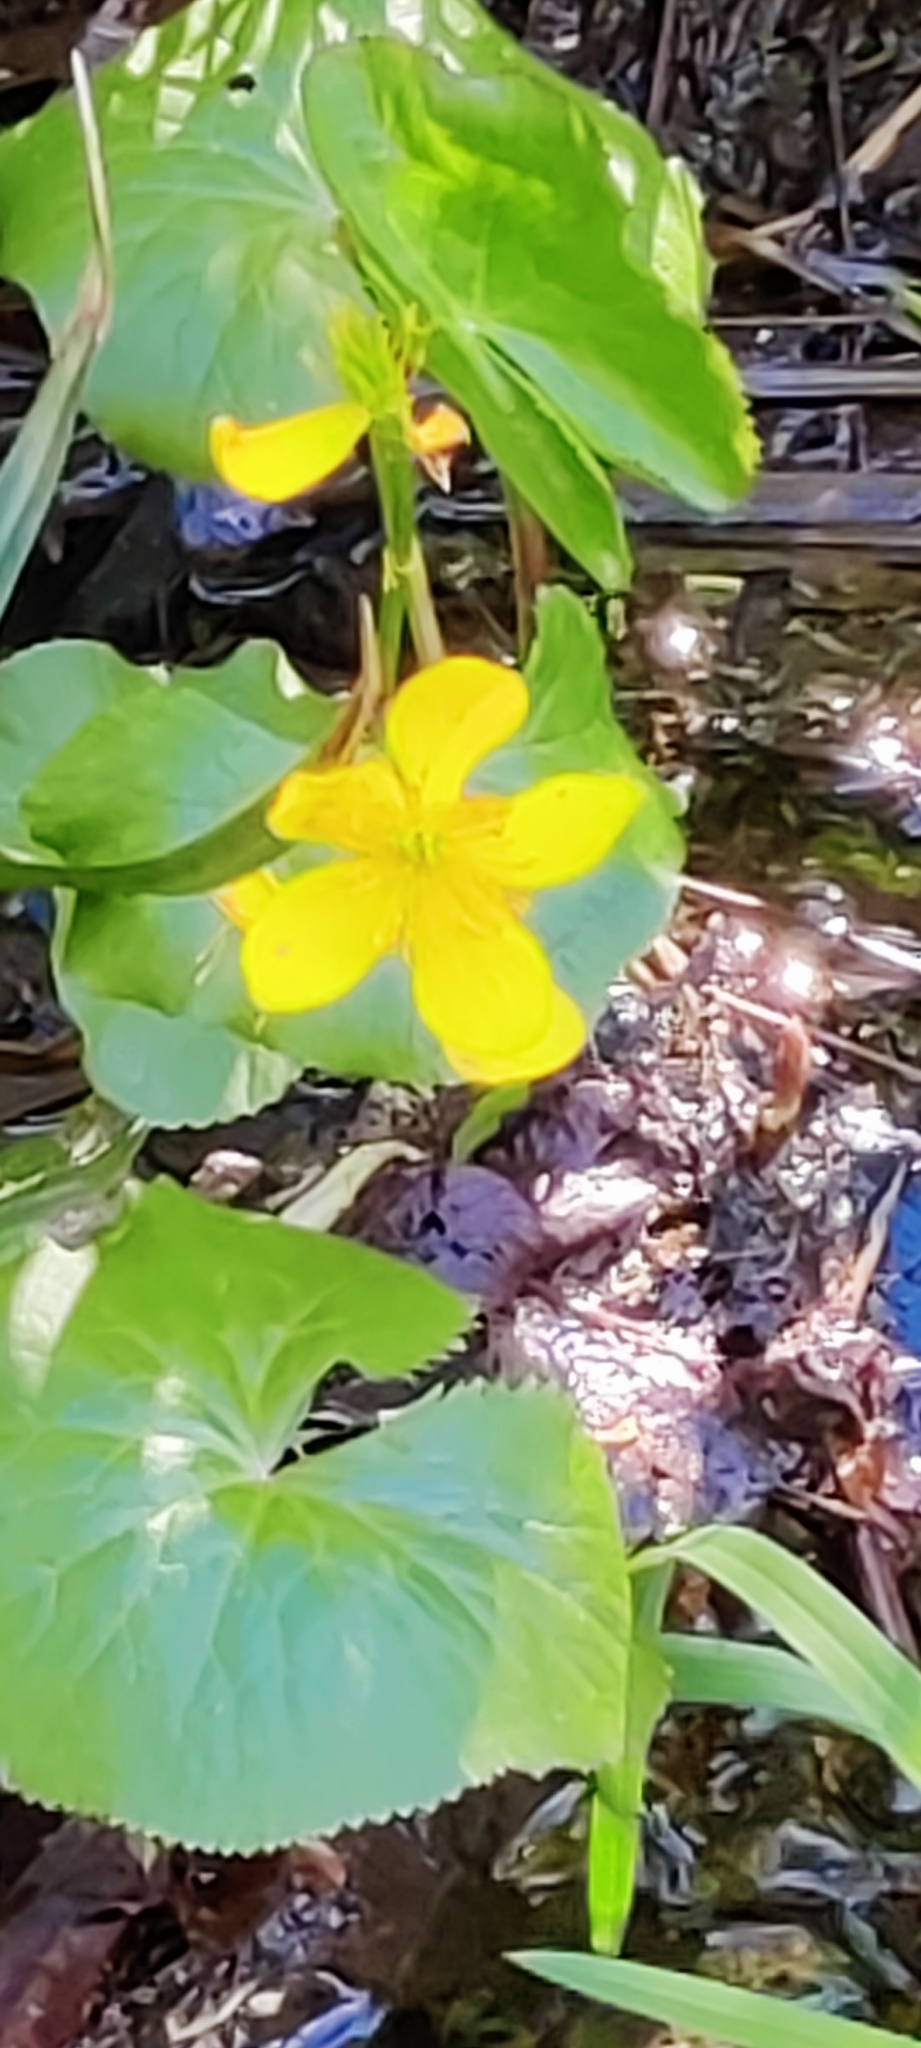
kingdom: Plantae
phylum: Tracheophyta
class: Magnoliopsida
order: Ranunculales
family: Ranunculaceae
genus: Caltha
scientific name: Caltha palustris
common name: Marsh marigold
